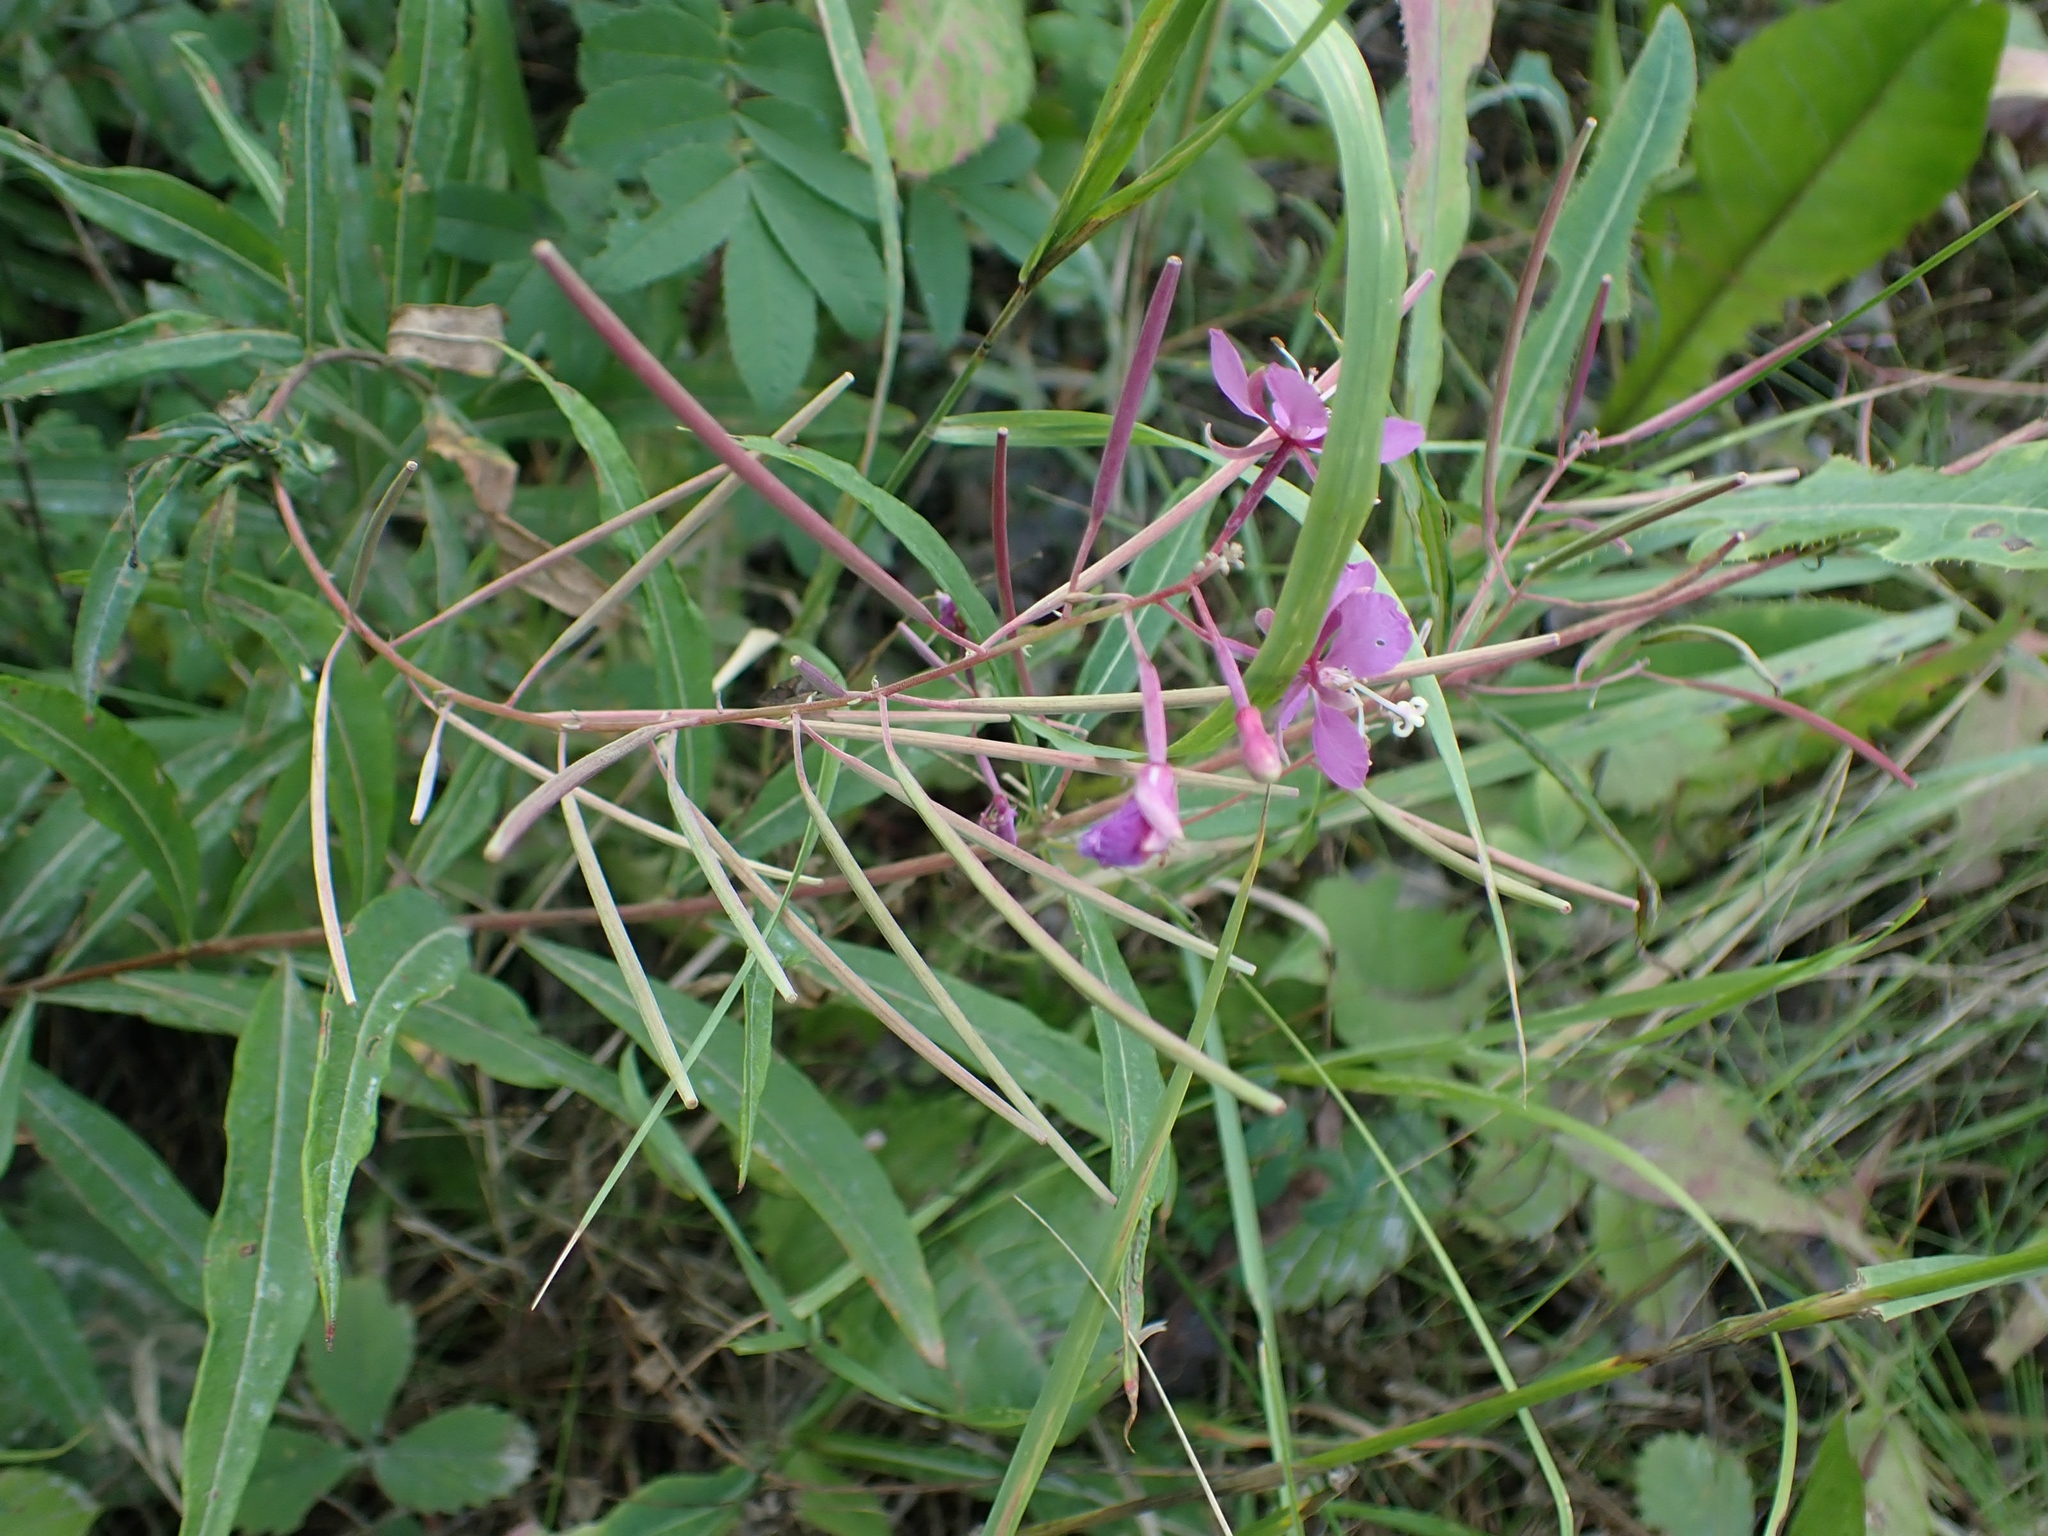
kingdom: Plantae
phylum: Tracheophyta
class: Magnoliopsida
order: Myrtales
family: Onagraceae
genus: Chamaenerion
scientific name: Chamaenerion angustifolium
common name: Fireweed
